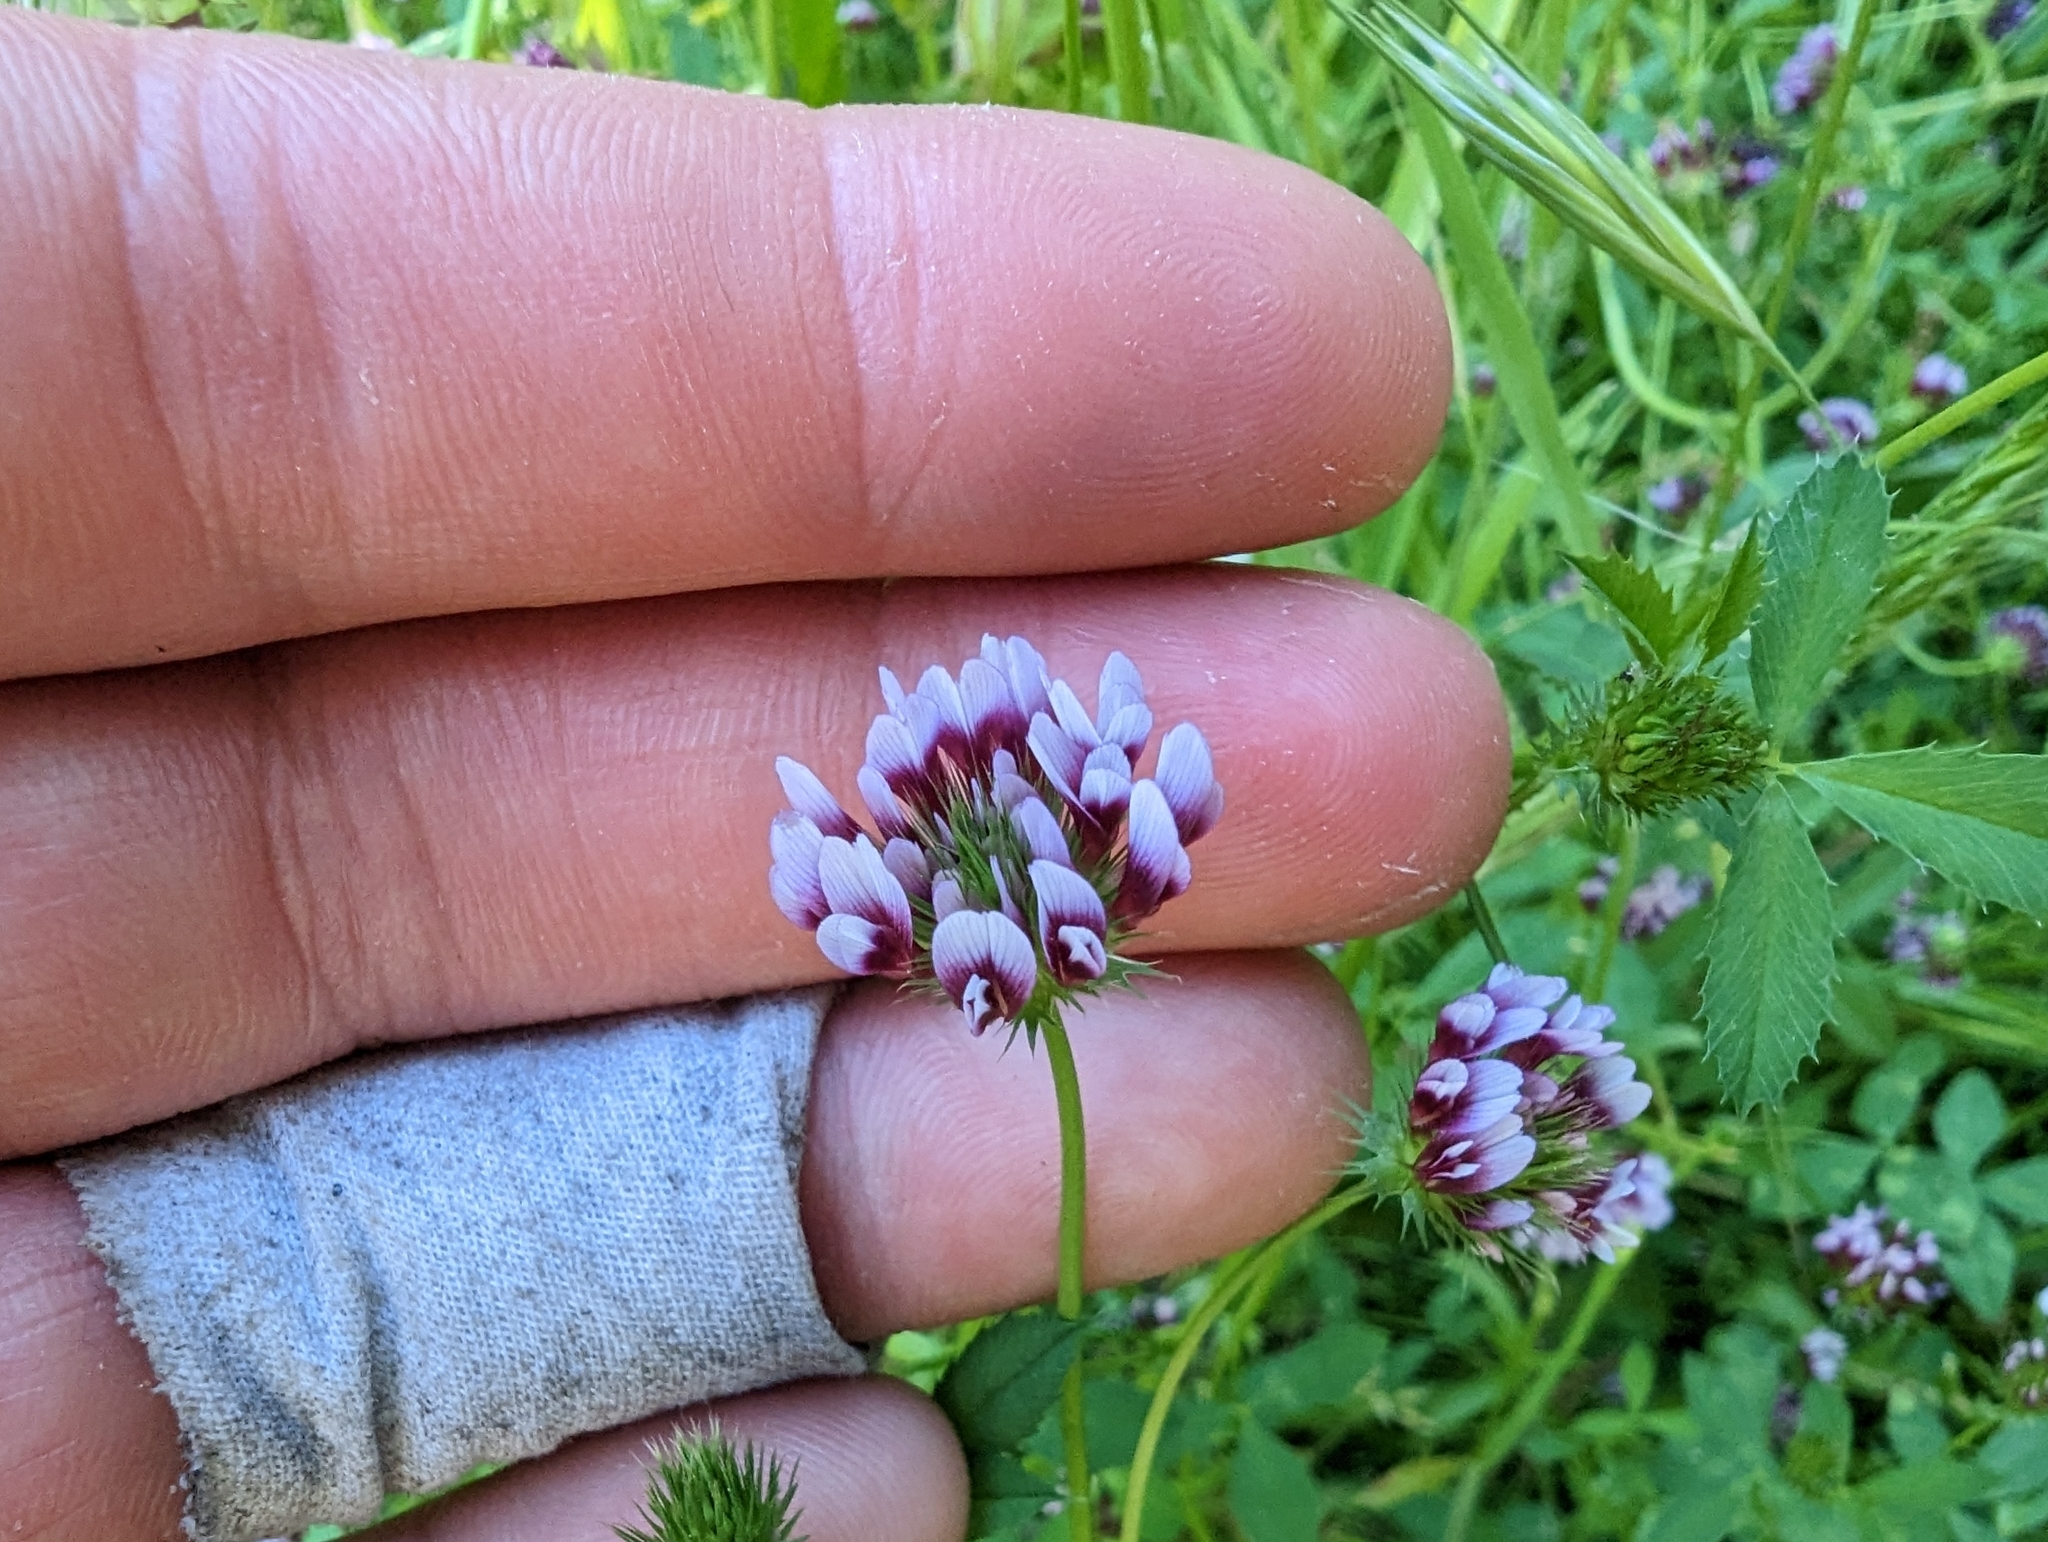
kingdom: Plantae
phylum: Tracheophyta
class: Magnoliopsida
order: Fabales
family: Fabaceae
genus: Trifolium
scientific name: Trifolium variegatum
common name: Whitetip clover
